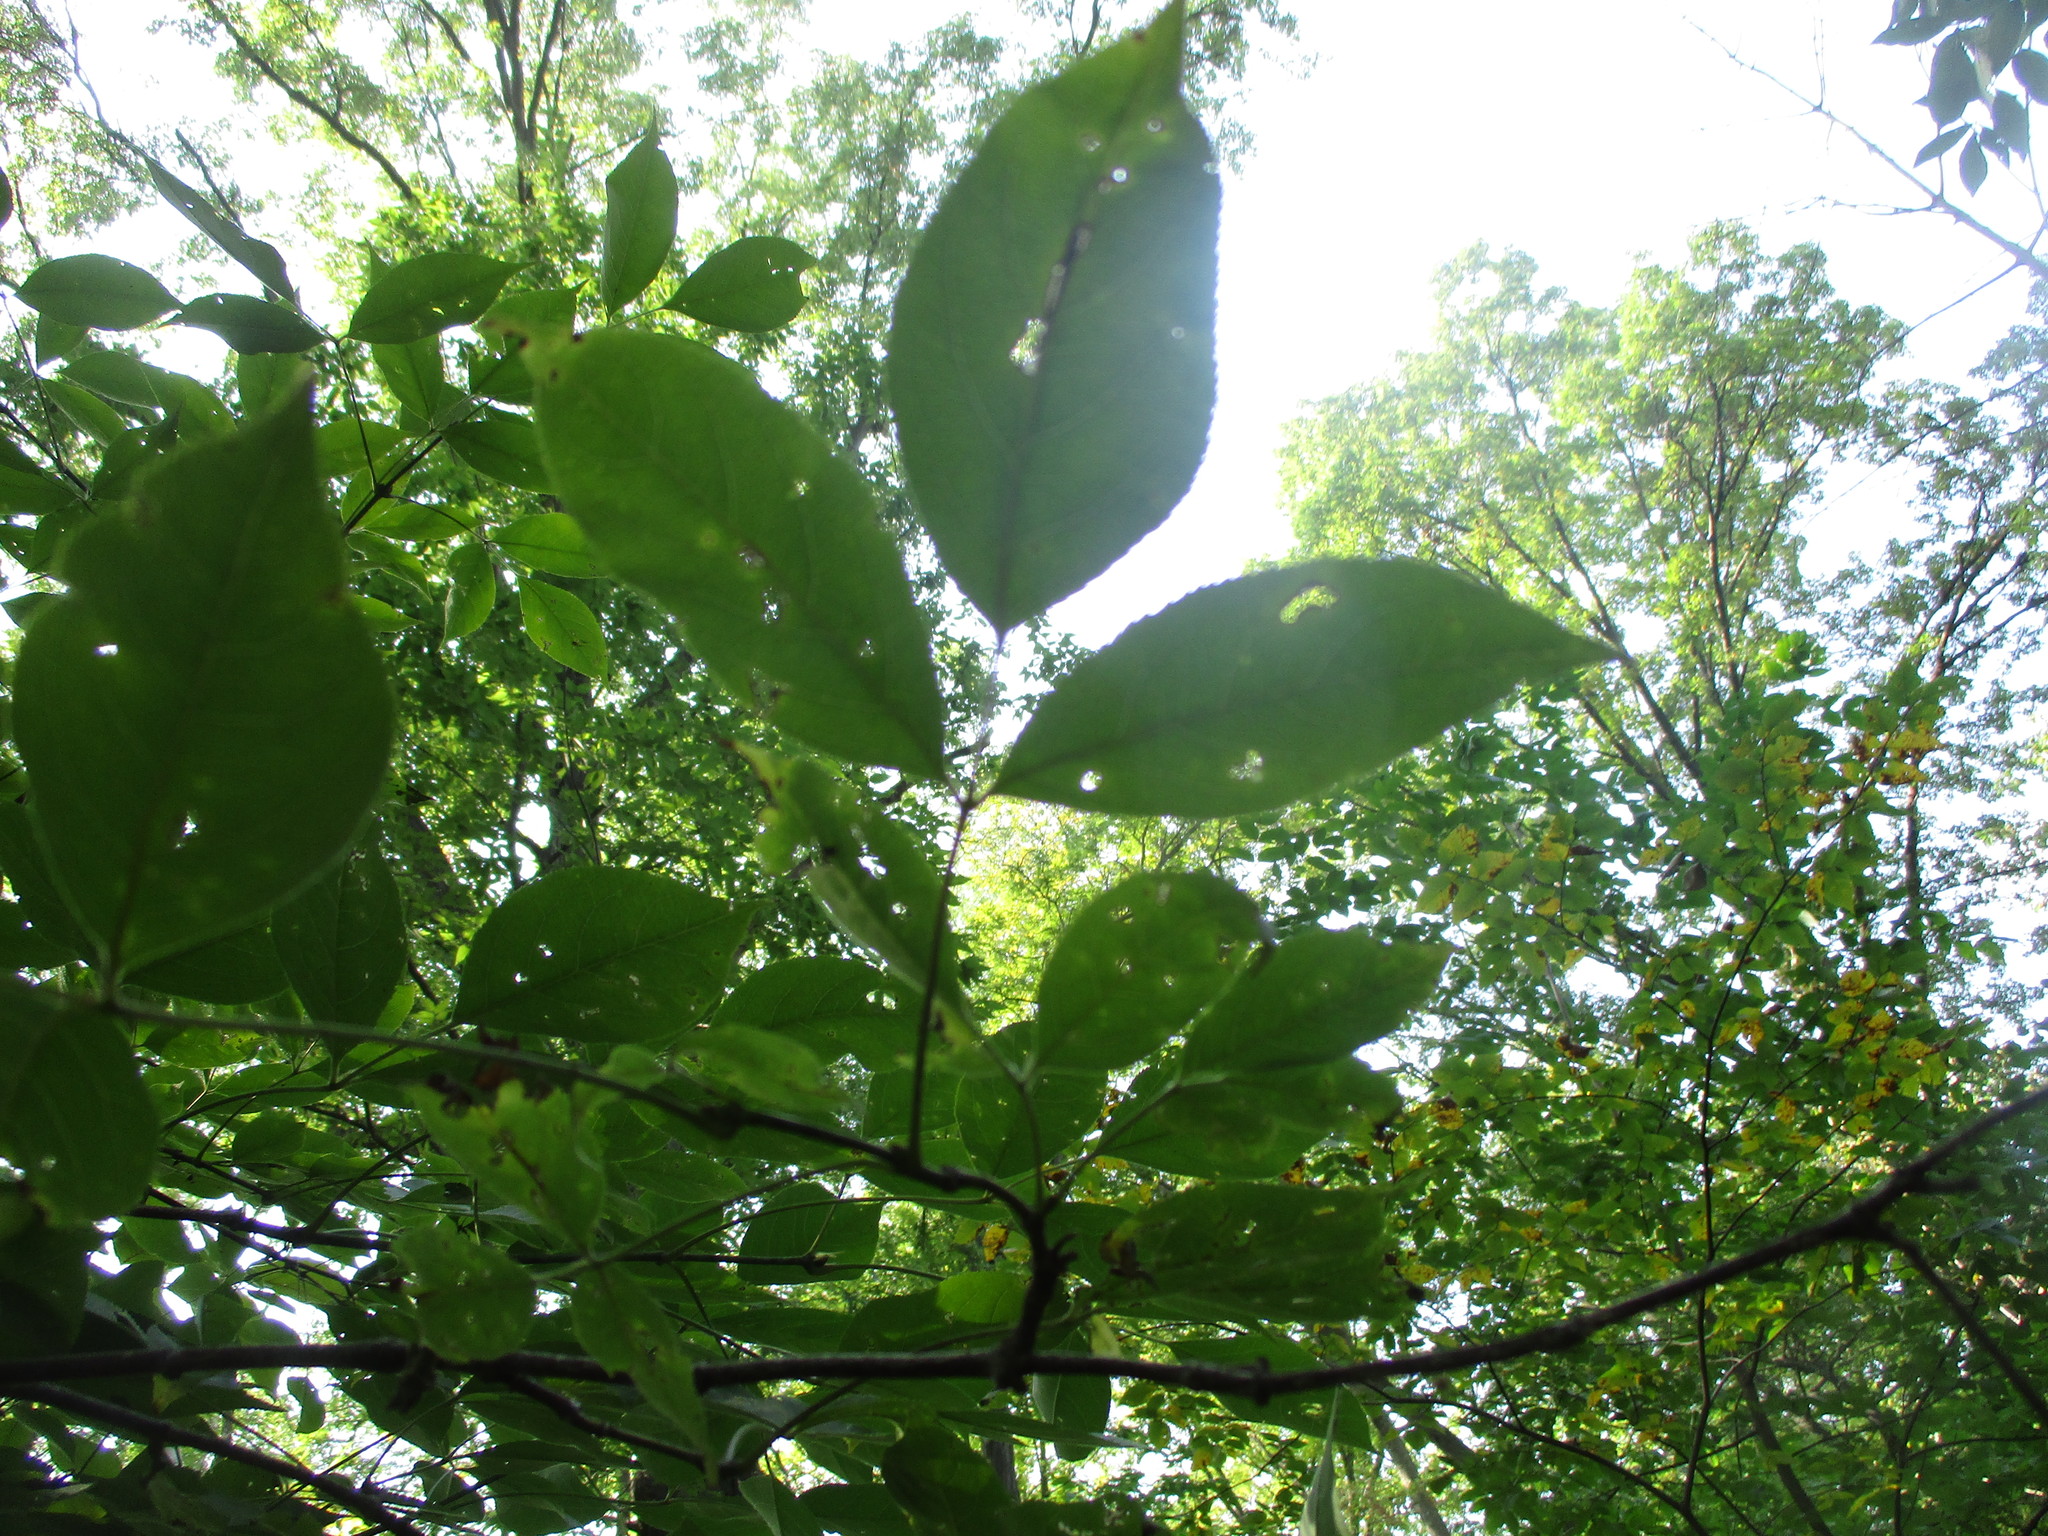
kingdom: Plantae
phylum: Tracheophyta
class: Magnoliopsida
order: Crossosomatales
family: Staphyleaceae
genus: Staphylea
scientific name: Staphylea trifolia
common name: American bladdernut
